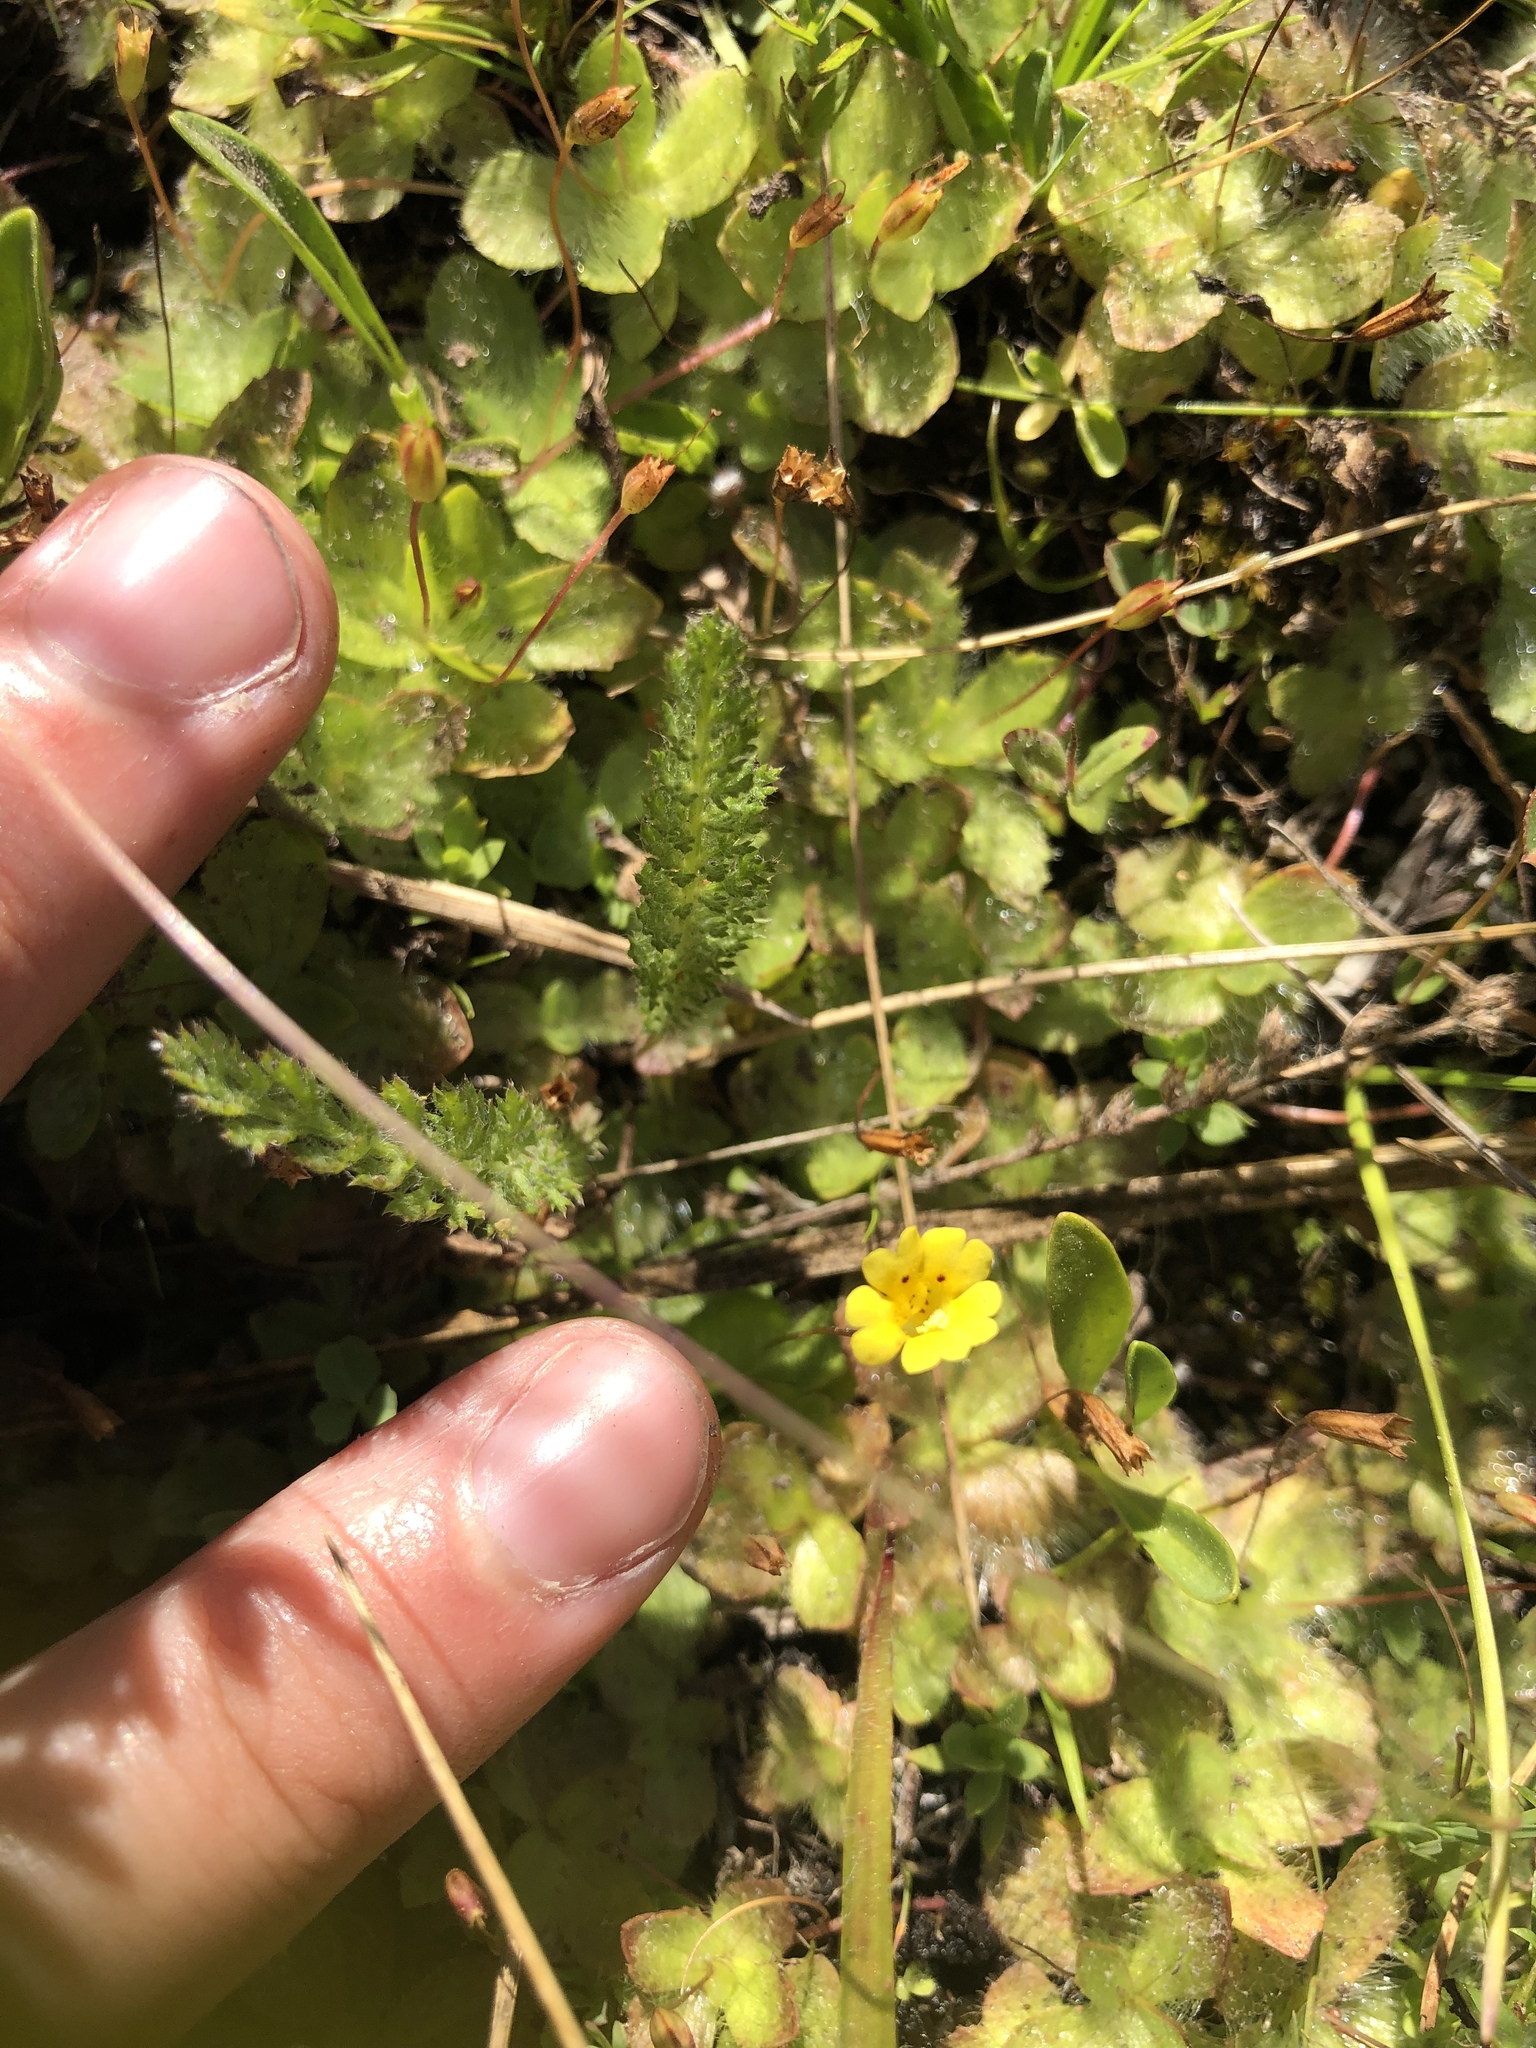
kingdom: Plantae
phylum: Tracheophyta
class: Magnoliopsida
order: Lamiales
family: Phrymaceae
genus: Erythranthe
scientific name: Erythranthe primuloides
